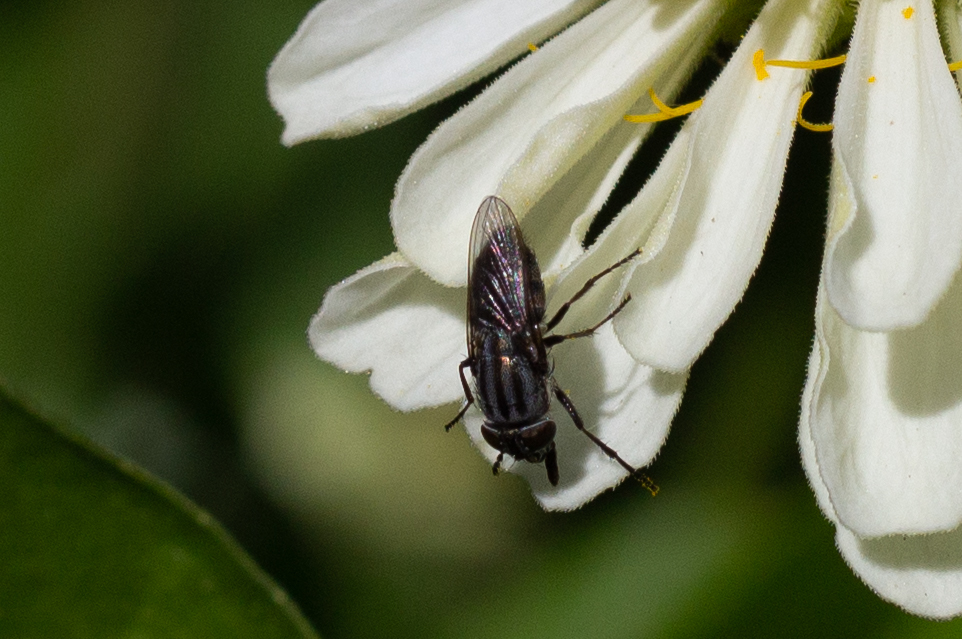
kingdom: Animalia
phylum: Arthropoda
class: Insecta
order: Diptera
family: Calliphoridae
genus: Stomorhina
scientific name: Stomorhina lunata
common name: Locust blowfly
